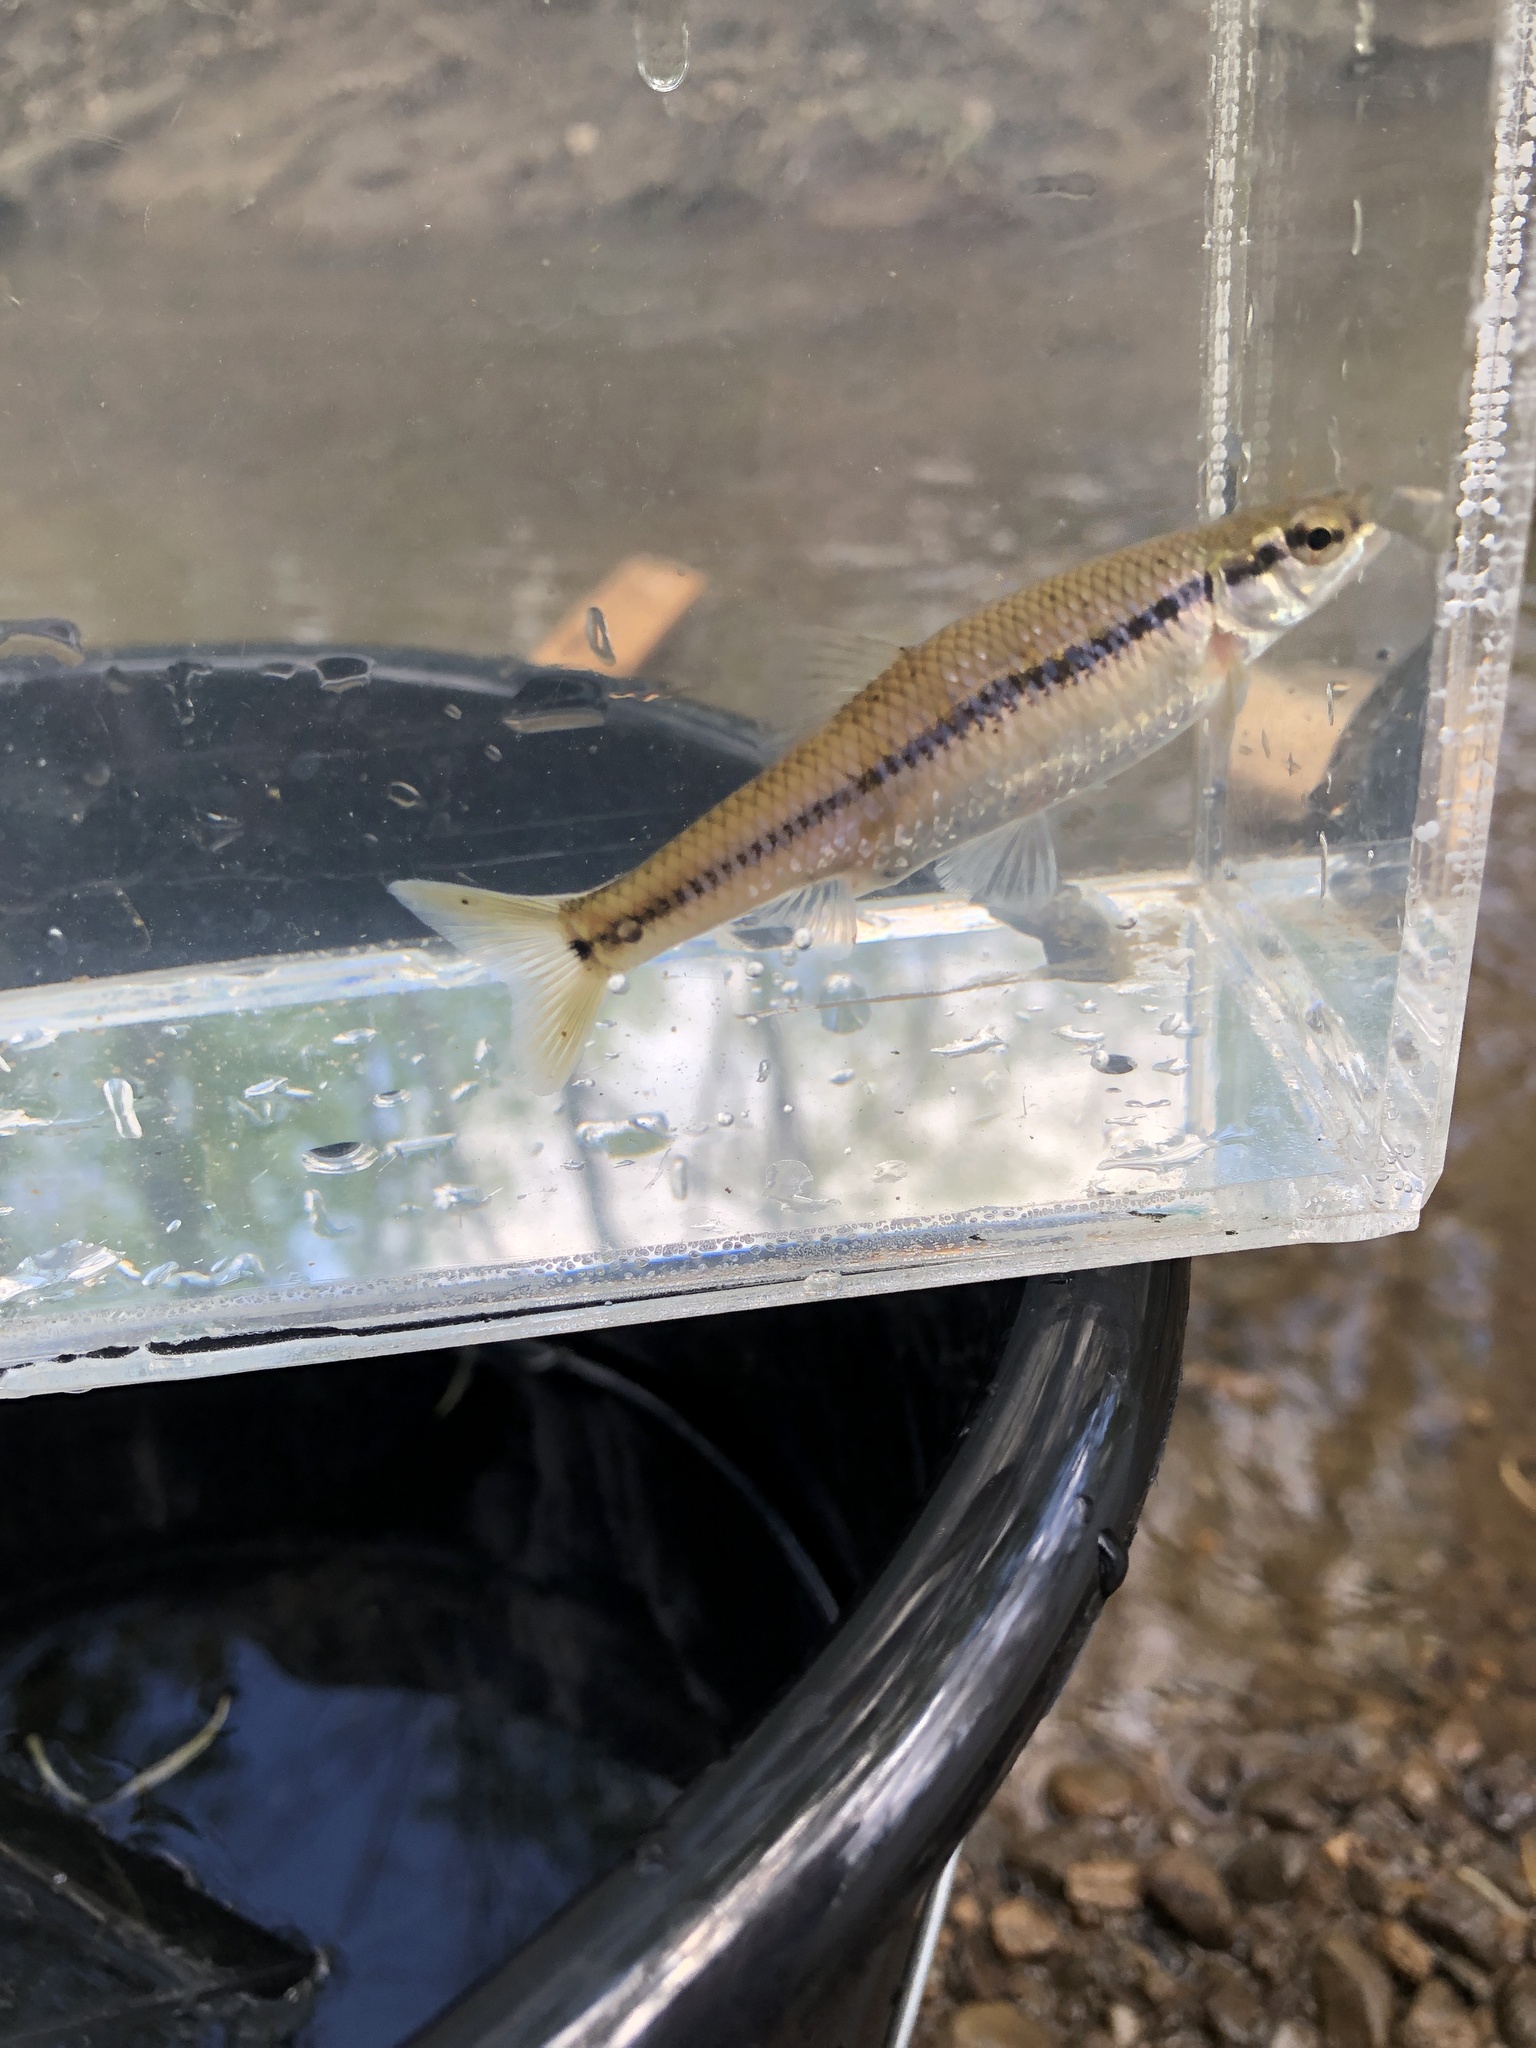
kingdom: Animalia
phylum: Chordata
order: Cypriniformes
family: Cyprinidae
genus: Pimephales
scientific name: Pimephales notatus
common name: Bluntnose minnow
